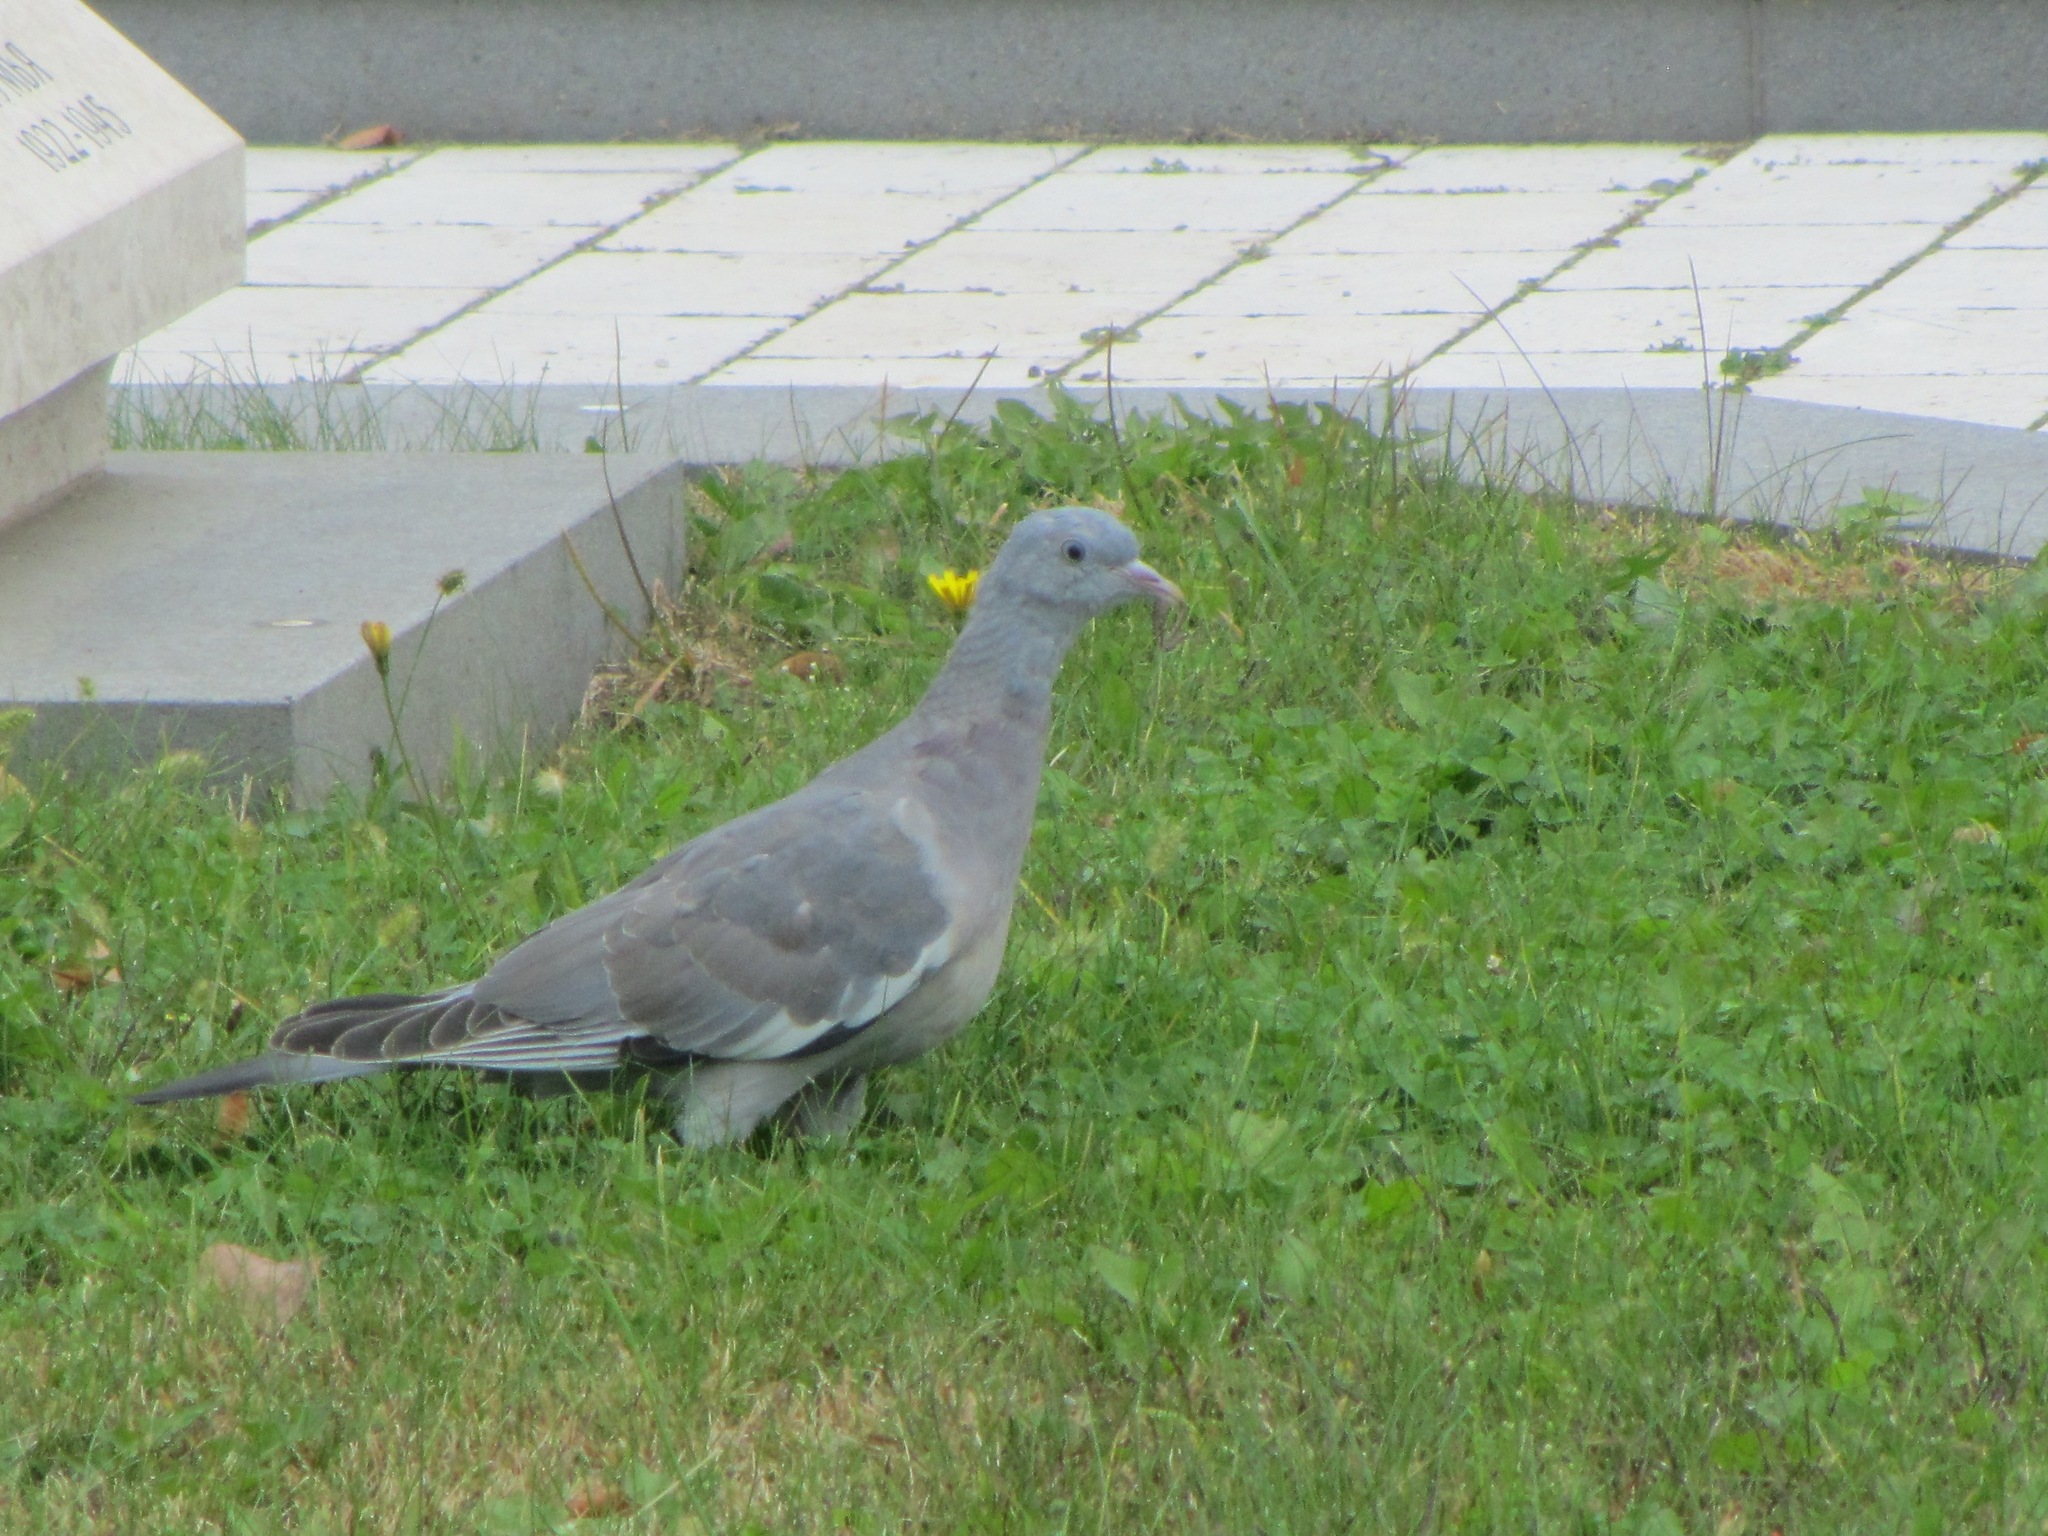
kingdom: Animalia
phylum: Chordata
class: Aves
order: Columbiformes
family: Columbidae
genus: Columba
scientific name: Columba palumbus
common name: Common wood pigeon
